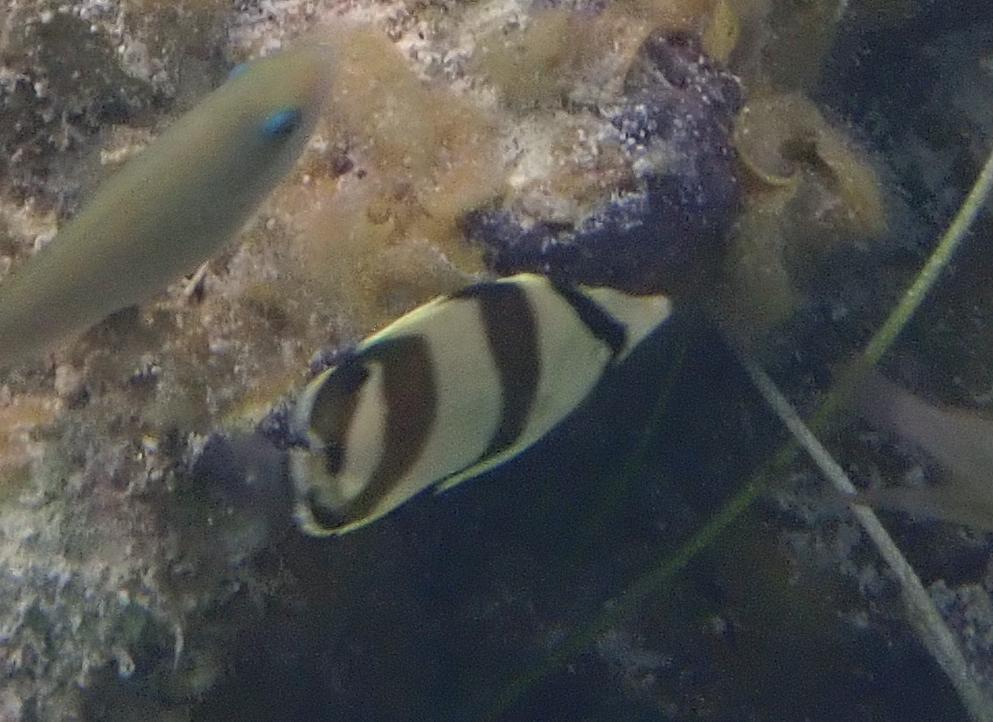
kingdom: Animalia
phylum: Chordata
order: Perciformes
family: Chaetodontidae
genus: Chaetodon
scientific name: Chaetodon striatus
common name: Banded butterflyfish
